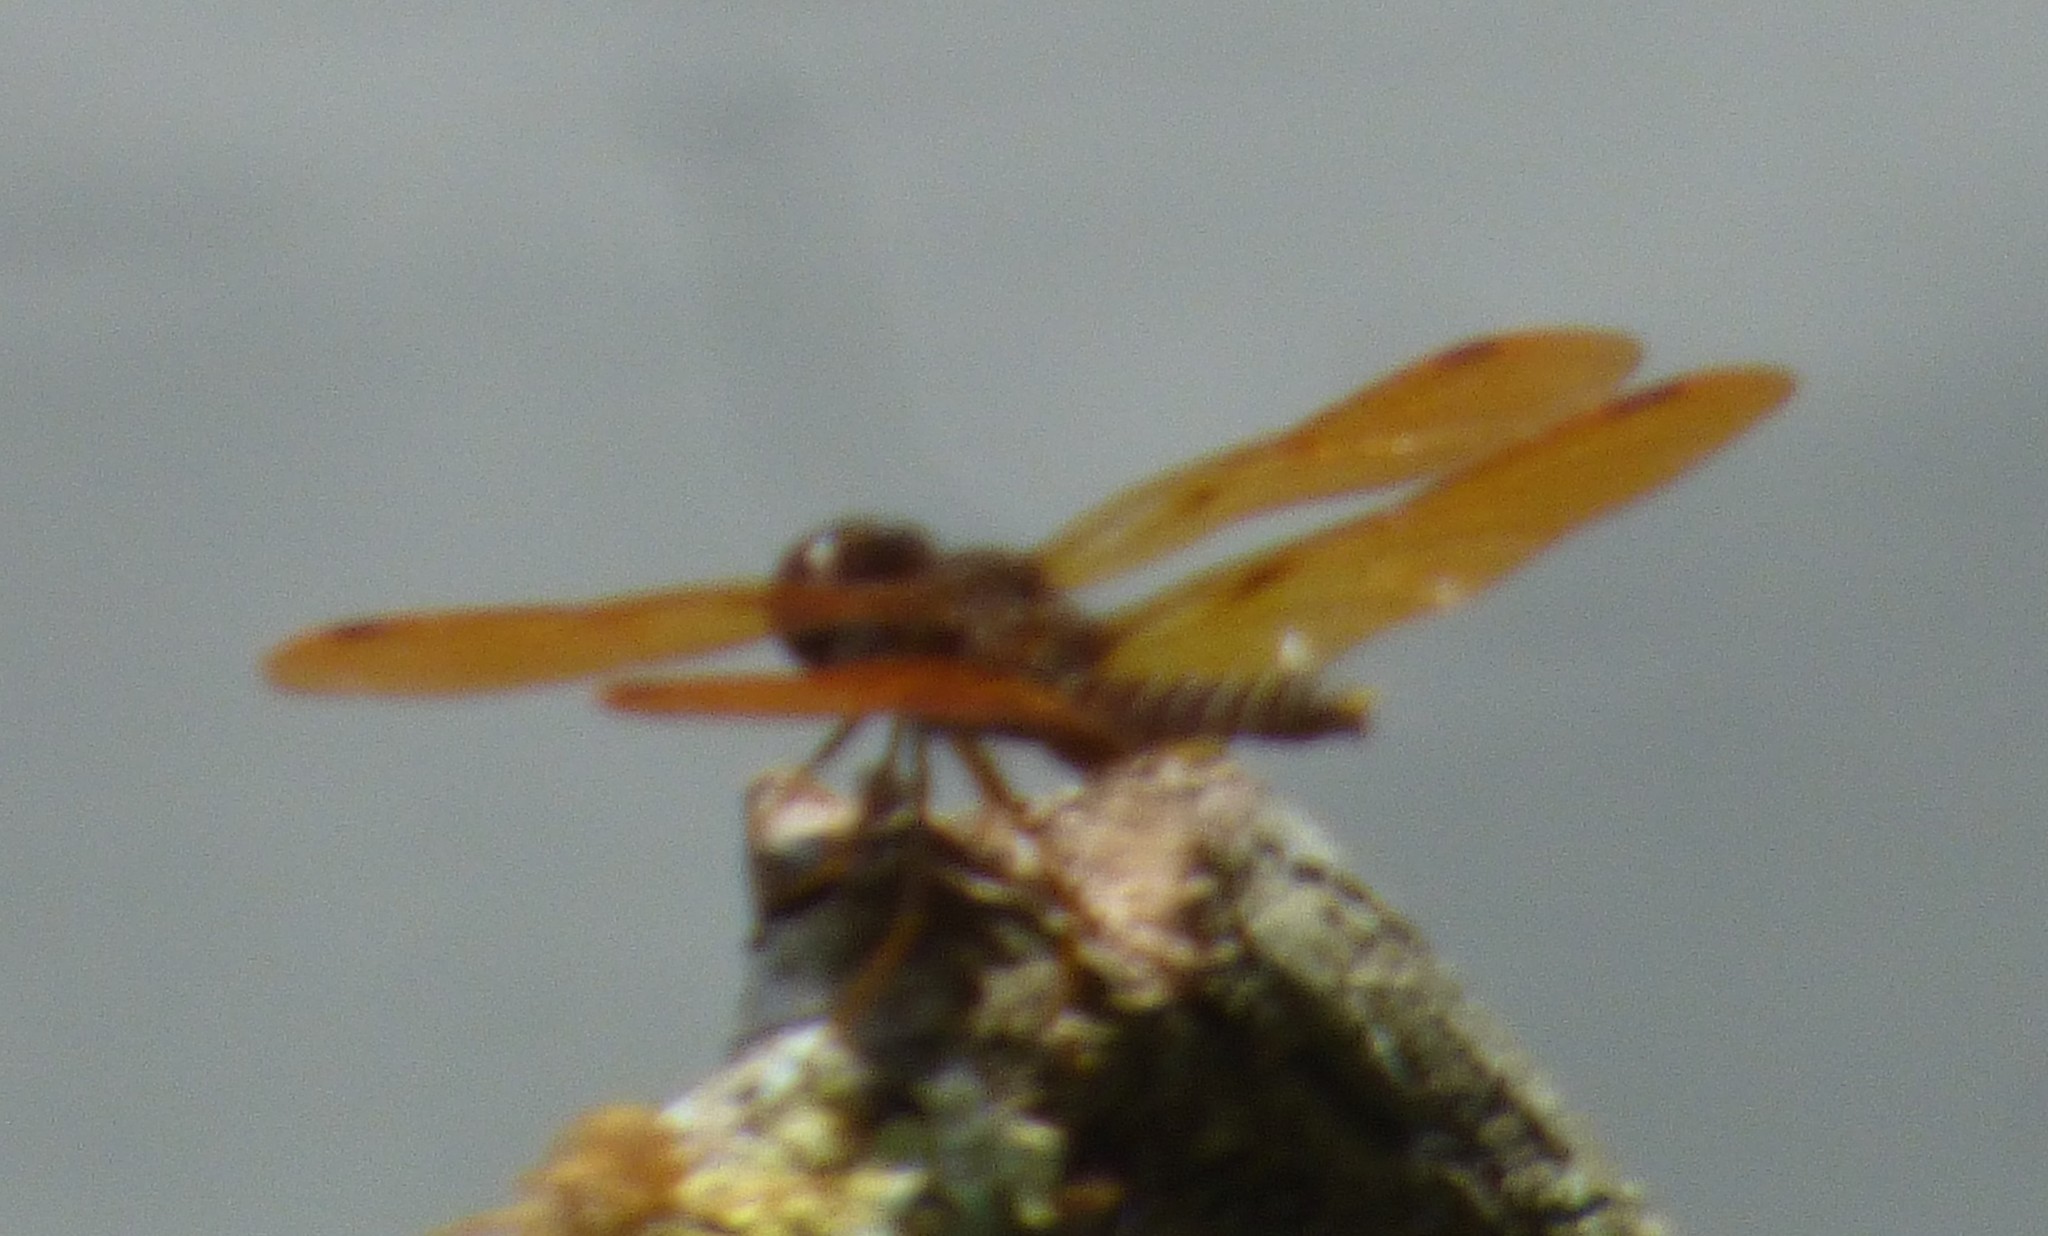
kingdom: Animalia
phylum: Arthropoda
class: Insecta
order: Odonata
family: Libellulidae
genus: Perithemis
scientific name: Perithemis tenera
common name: Eastern amberwing
